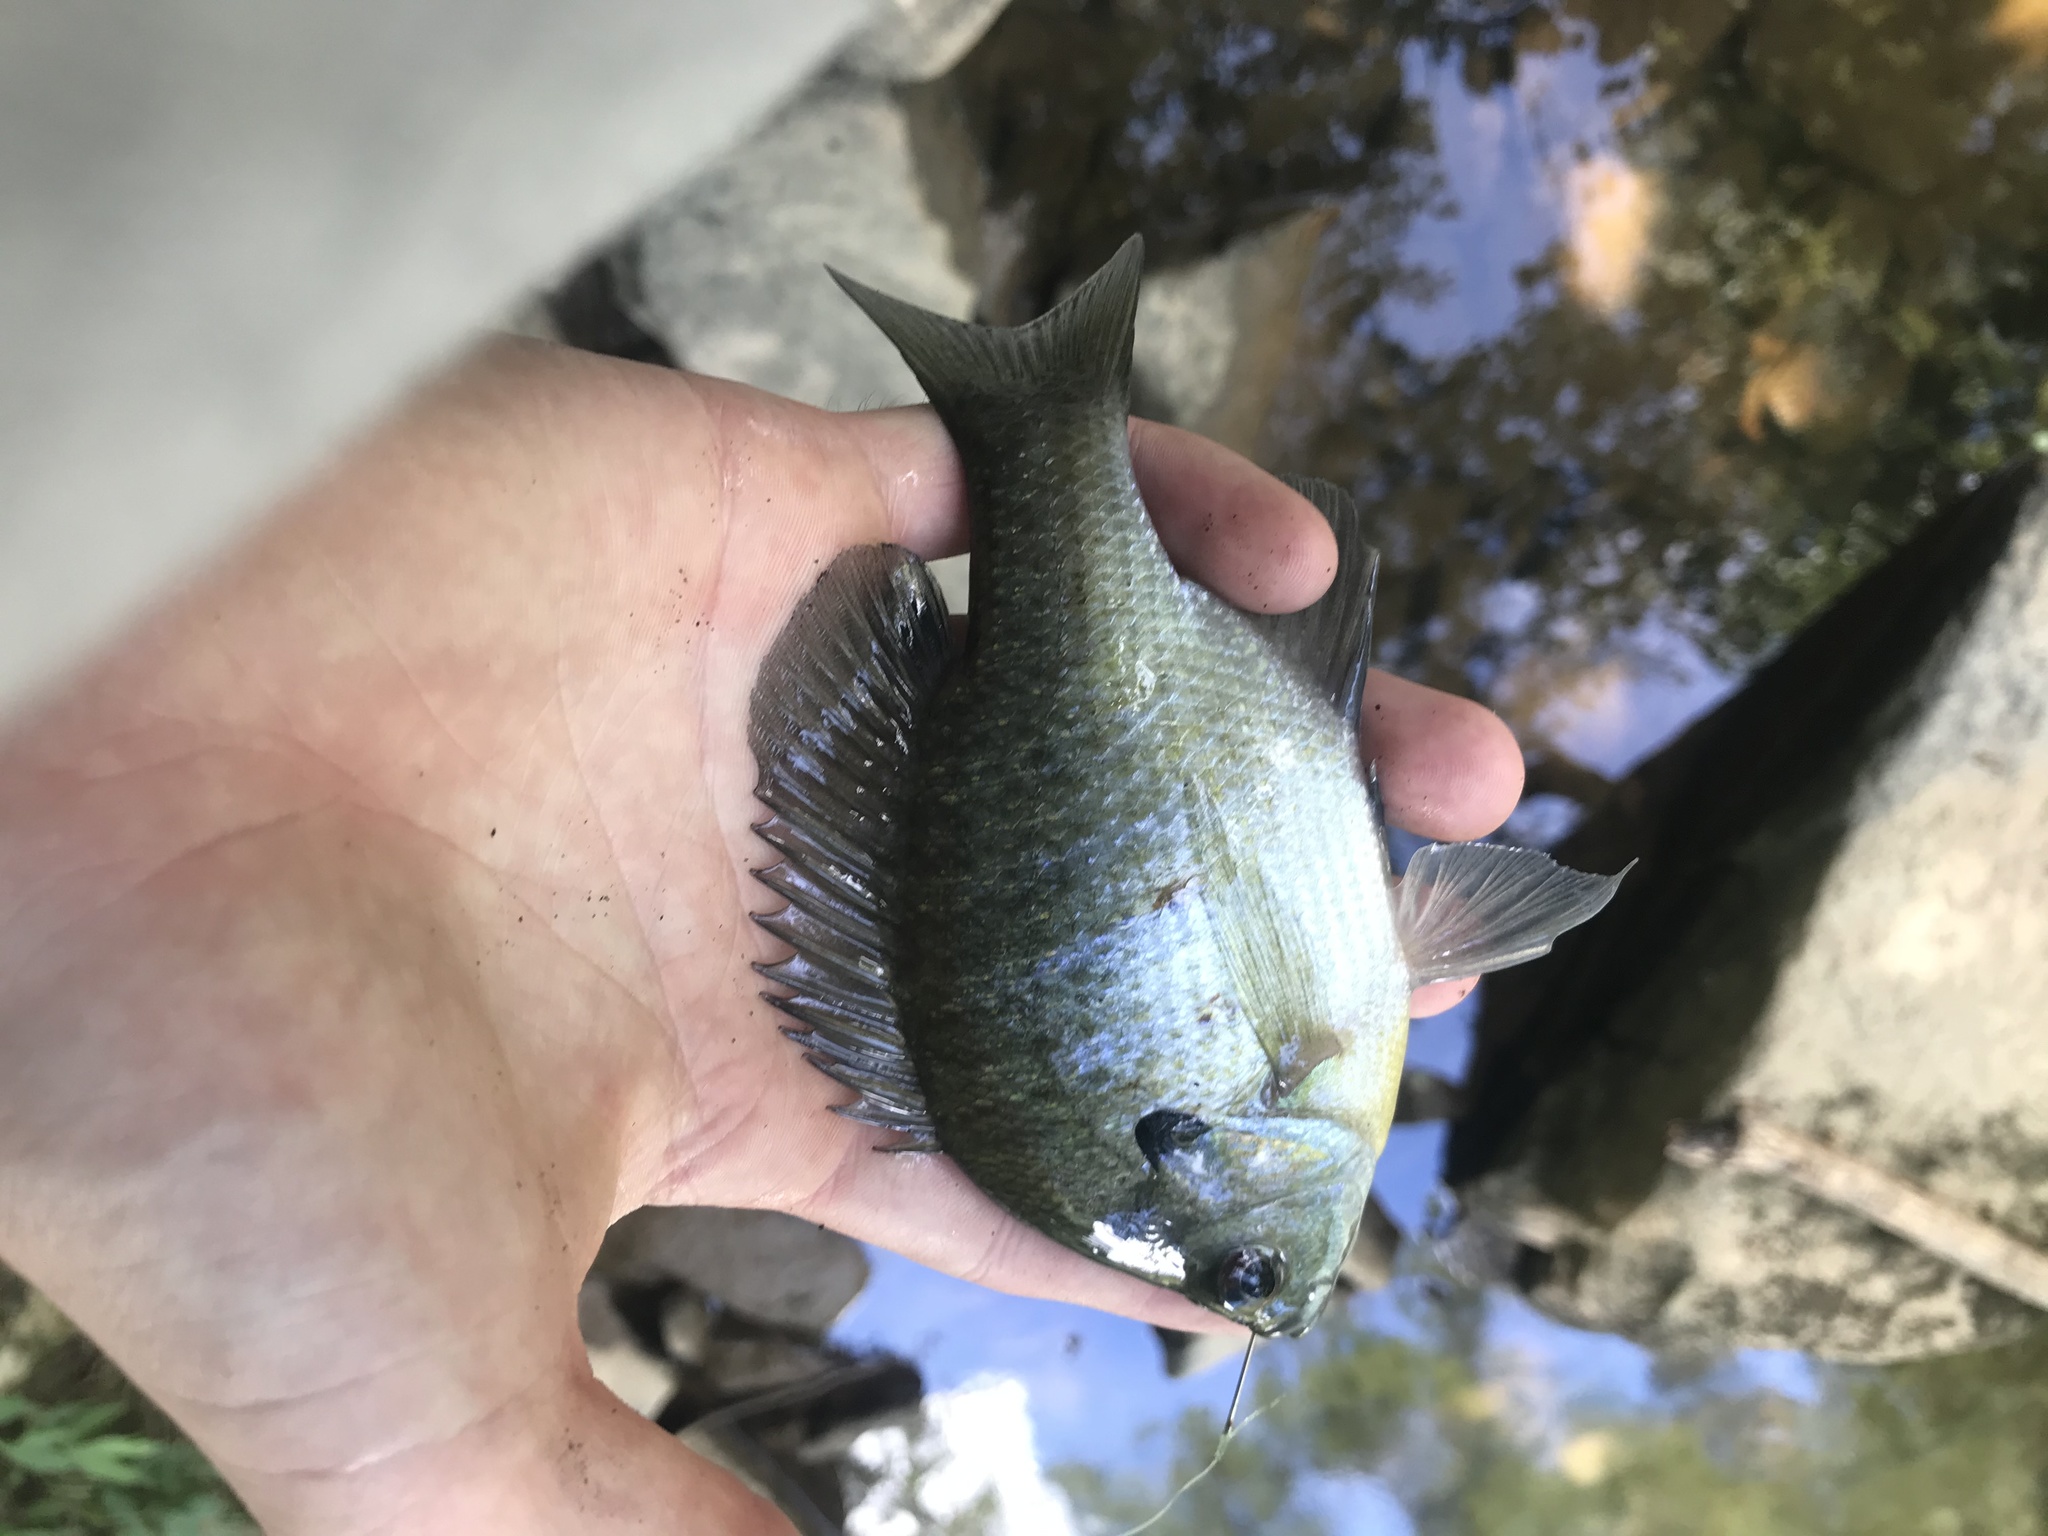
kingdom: Animalia
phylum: Chordata
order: Perciformes
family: Centrarchidae
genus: Lepomis
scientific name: Lepomis macrochirus
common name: Bluegill
